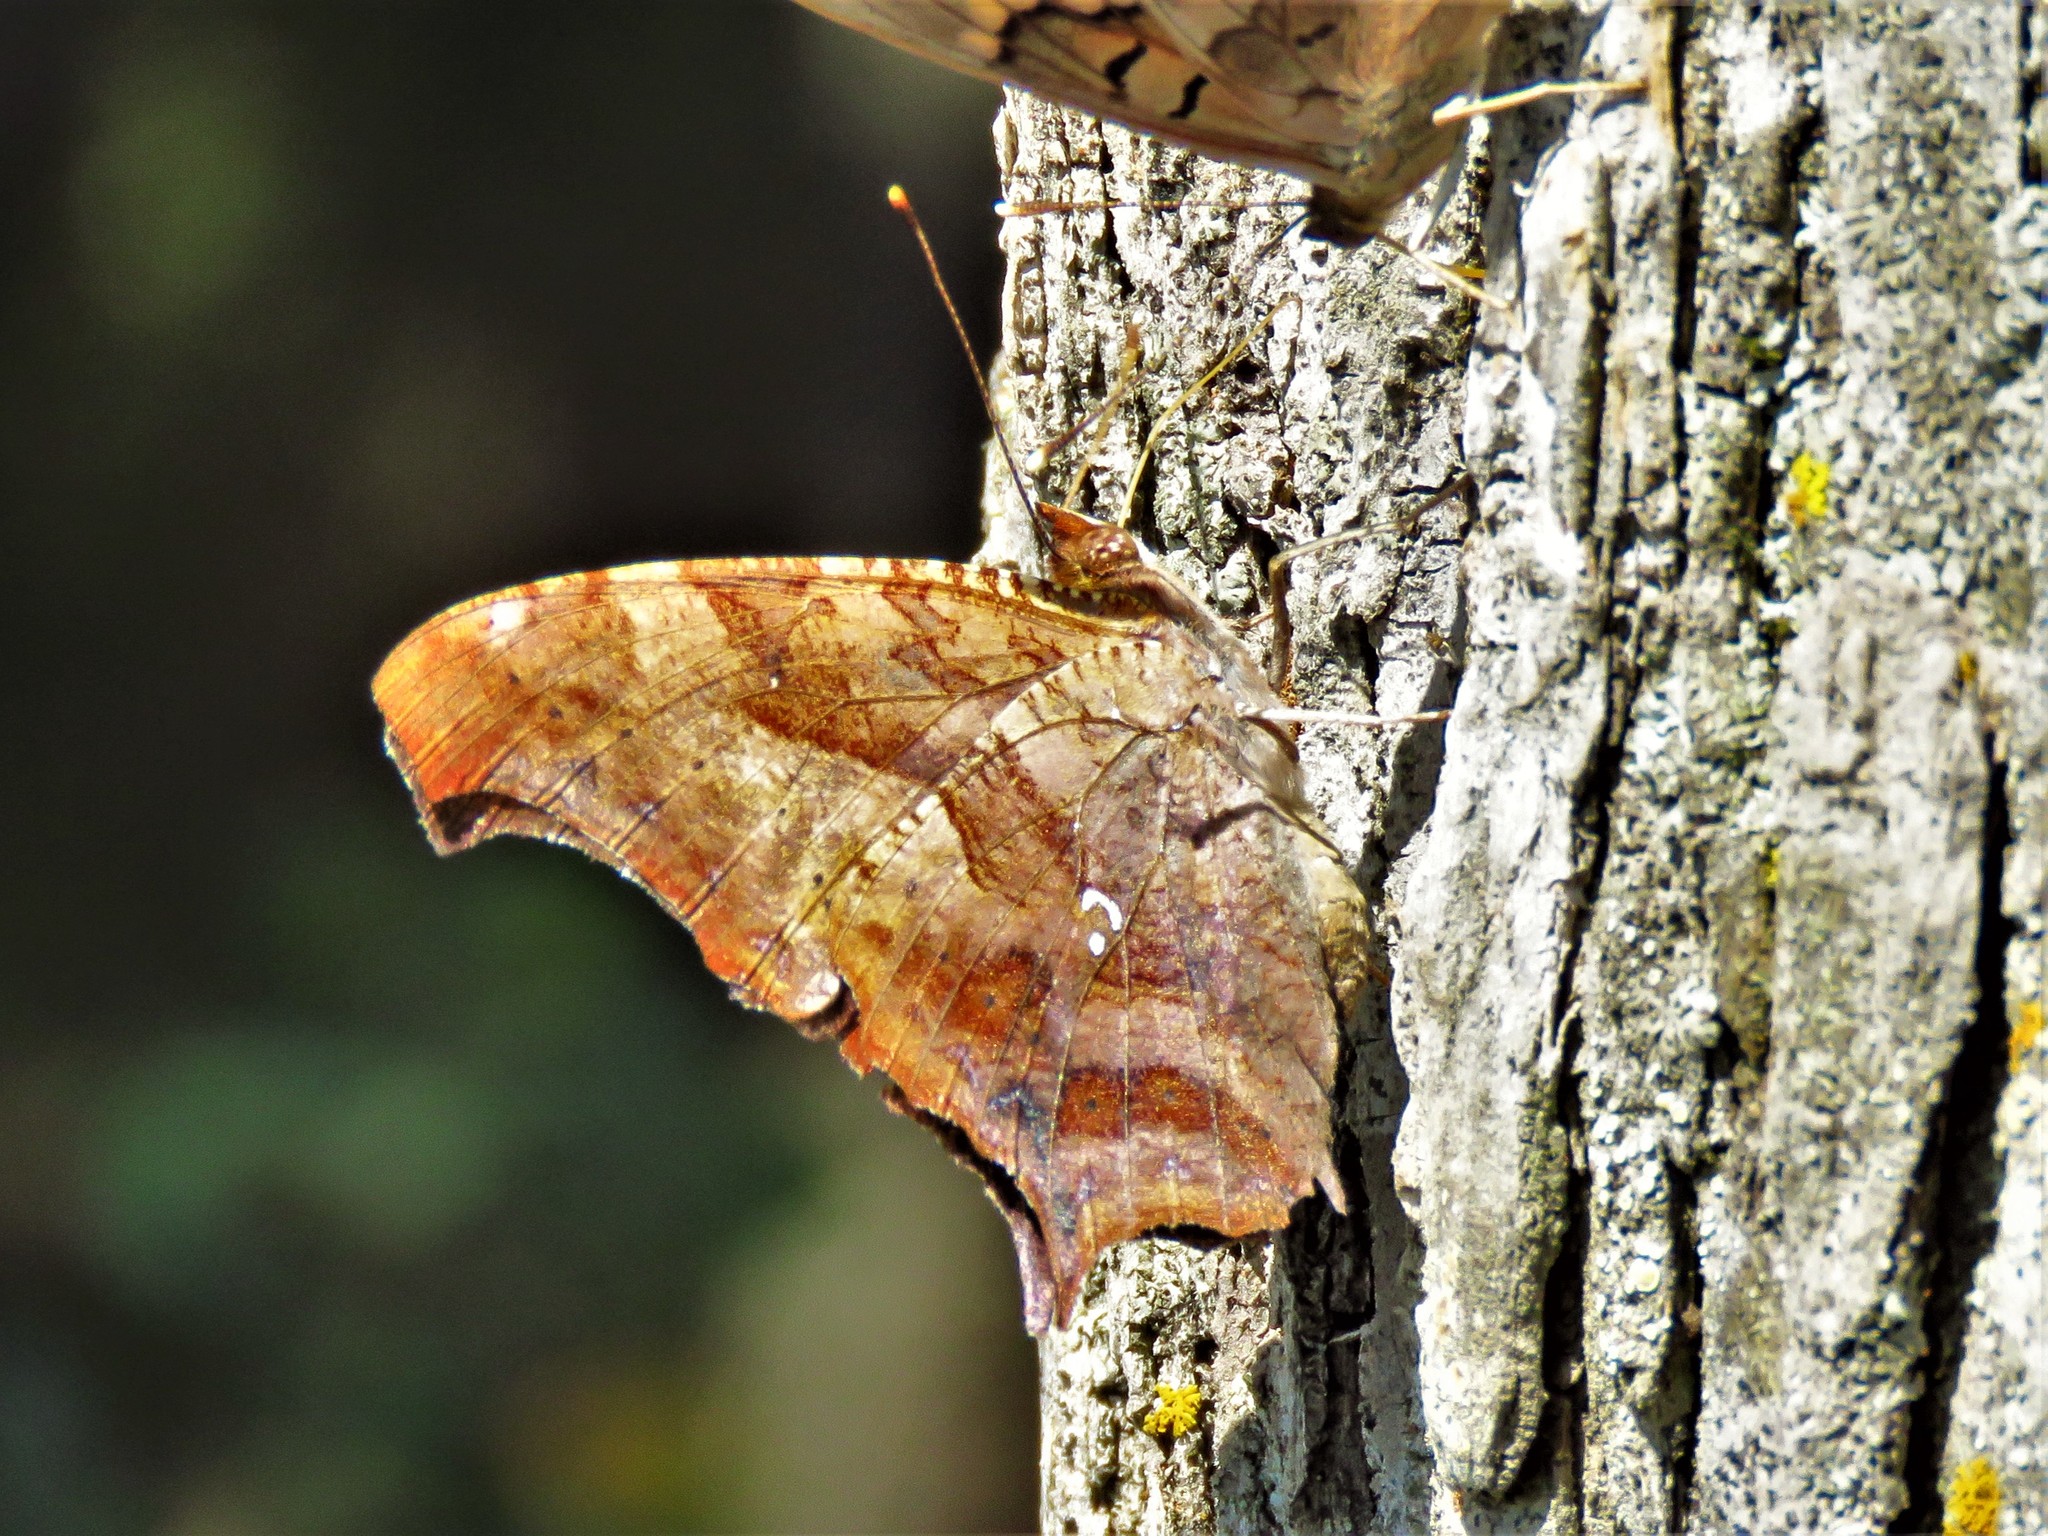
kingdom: Animalia
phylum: Arthropoda
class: Insecta
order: Lepidoptera
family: Nymphalidae
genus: Polygonia
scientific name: Polygonia interrogationis
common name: Question mark
